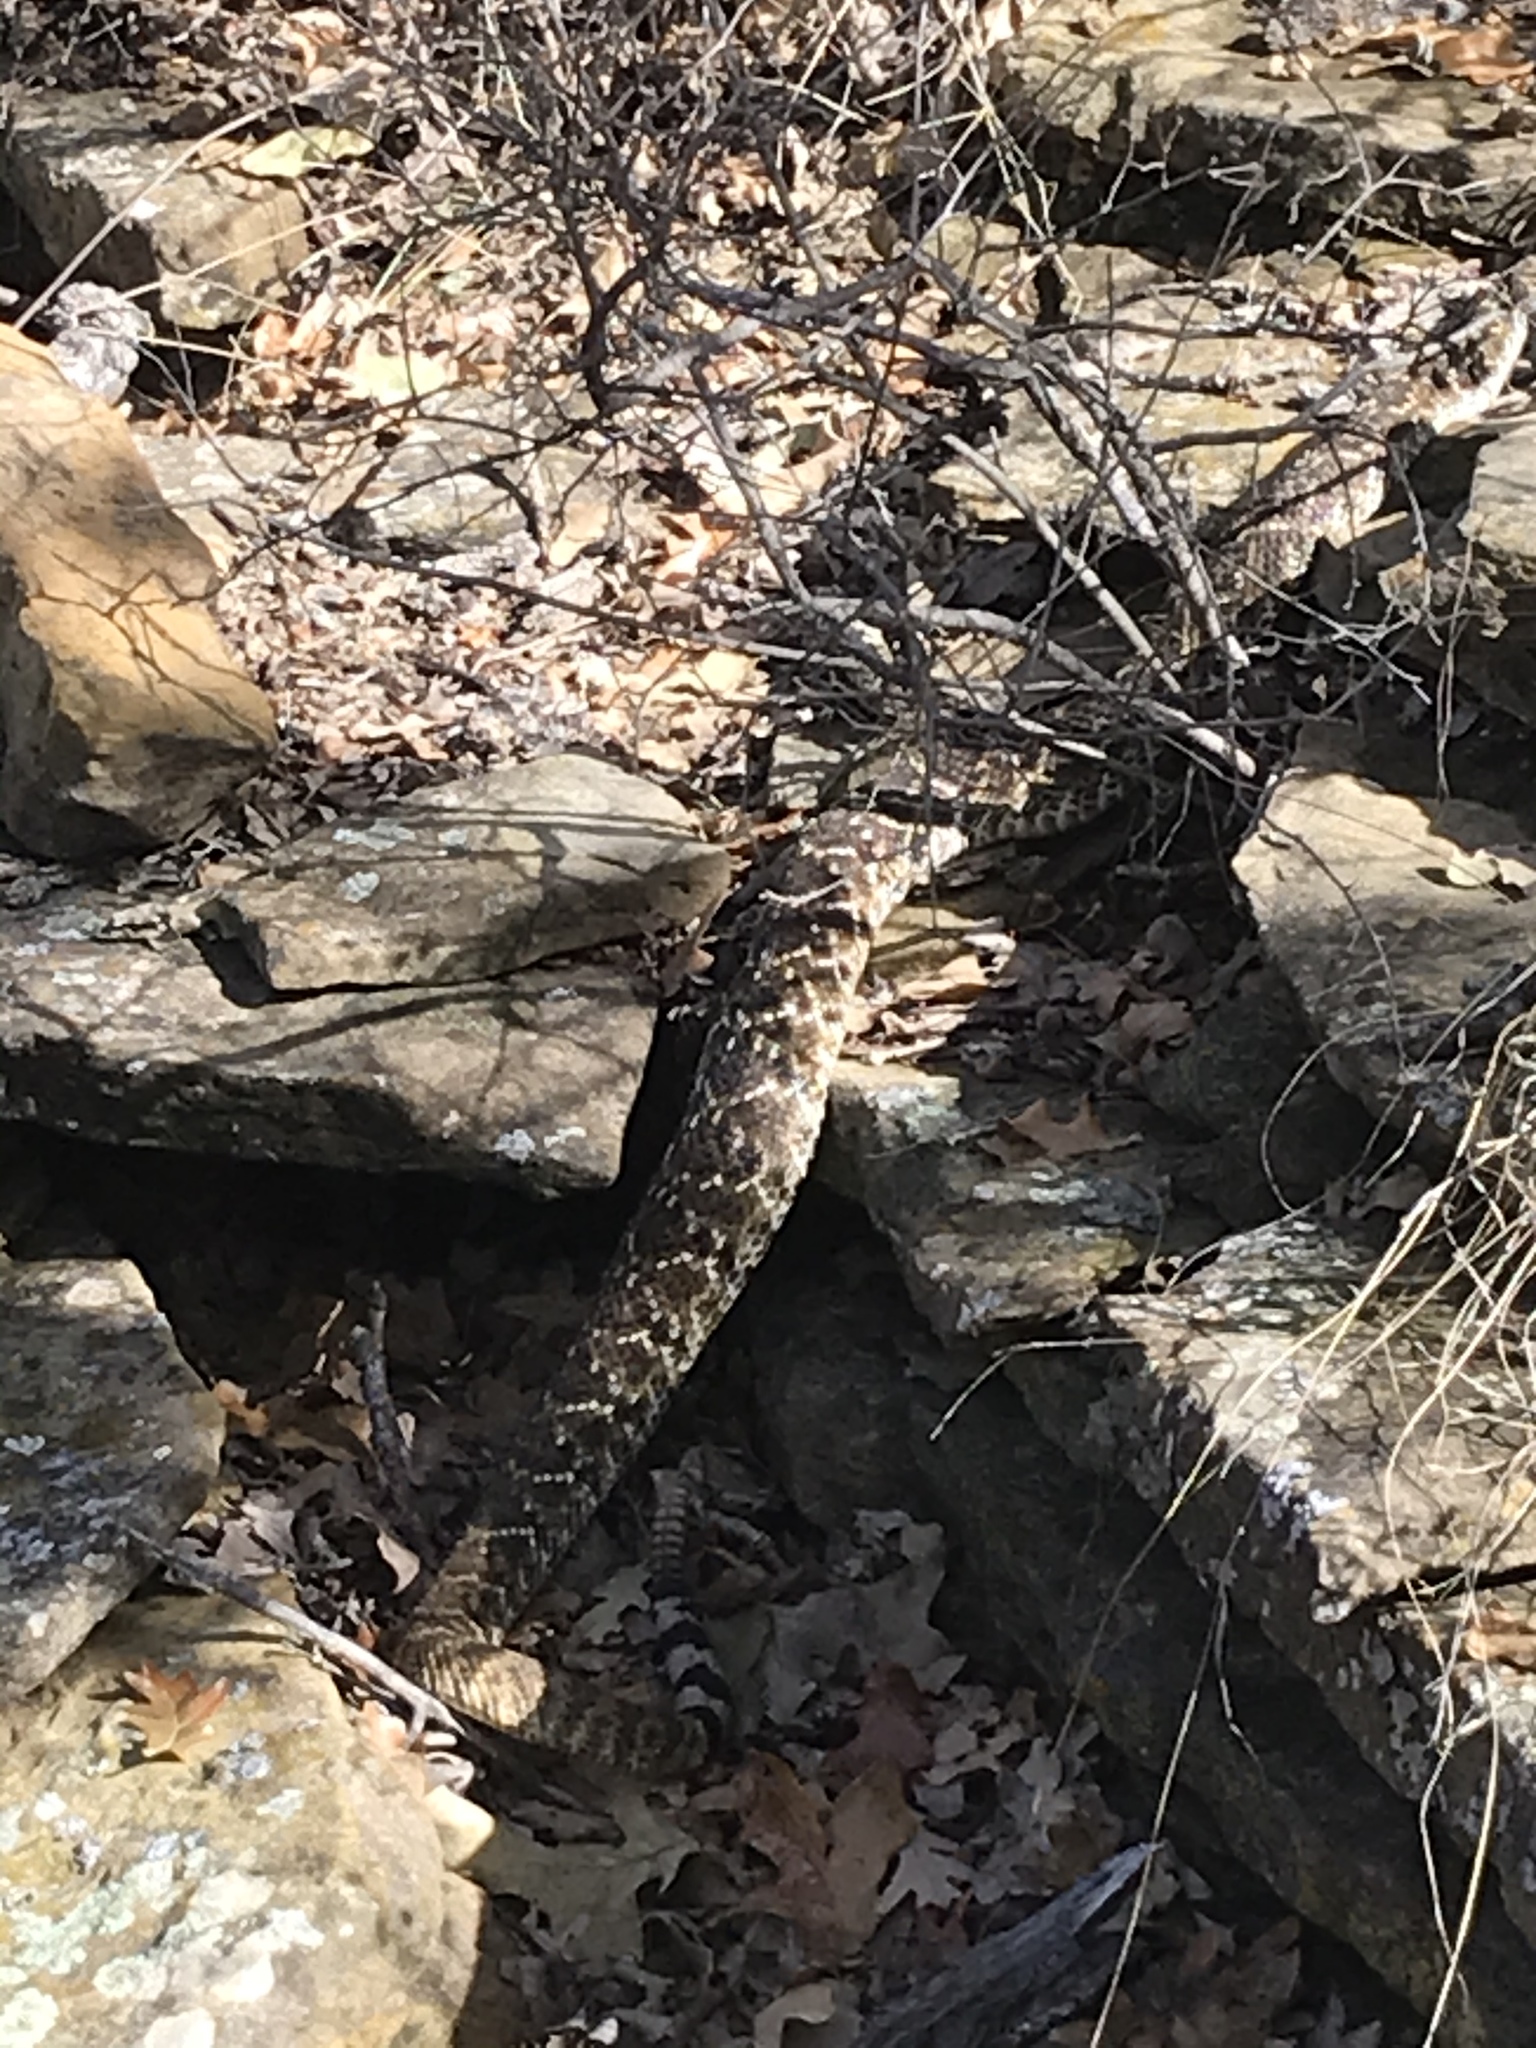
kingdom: Animalia
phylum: Chordata
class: Squamata
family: Viperidae
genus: Crotalus
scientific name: Crotalus atrox
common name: Western diamond-backed rattlesnake
